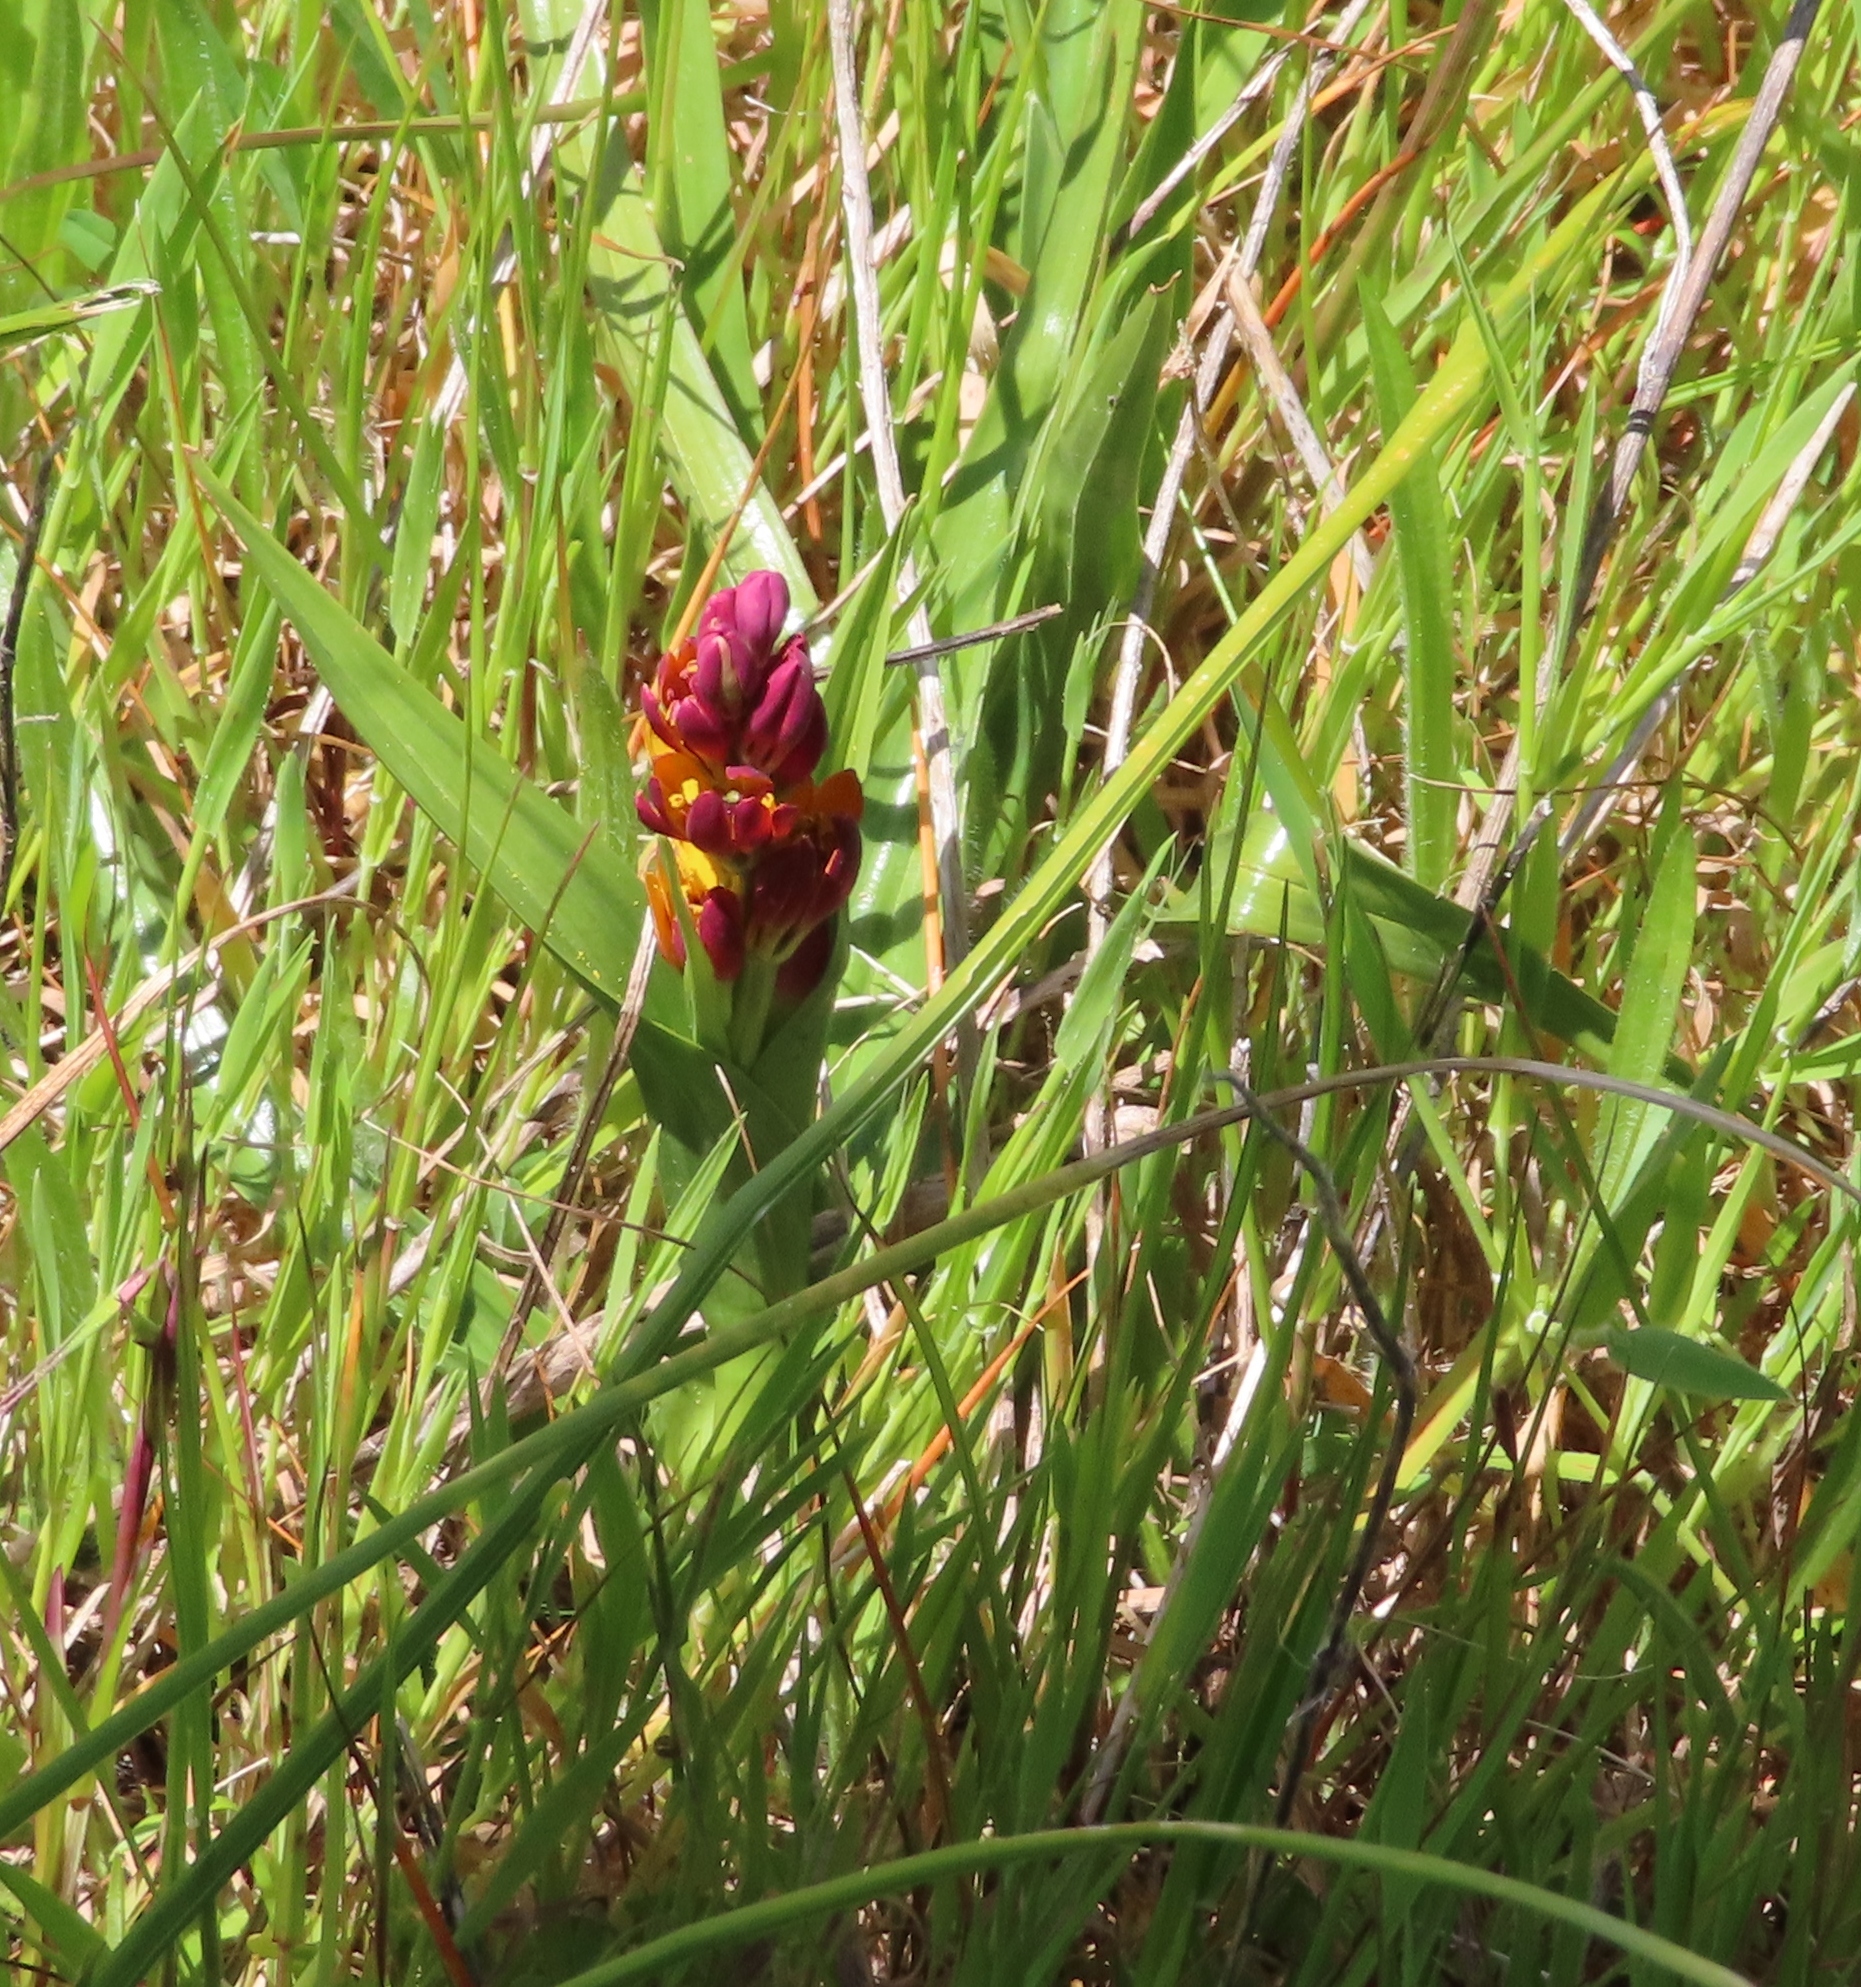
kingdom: Plantae
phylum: Tracheophyta
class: Liliopsida
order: Liliales
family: Colchicaceae
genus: Baeometra
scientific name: Baeometra uniflora
